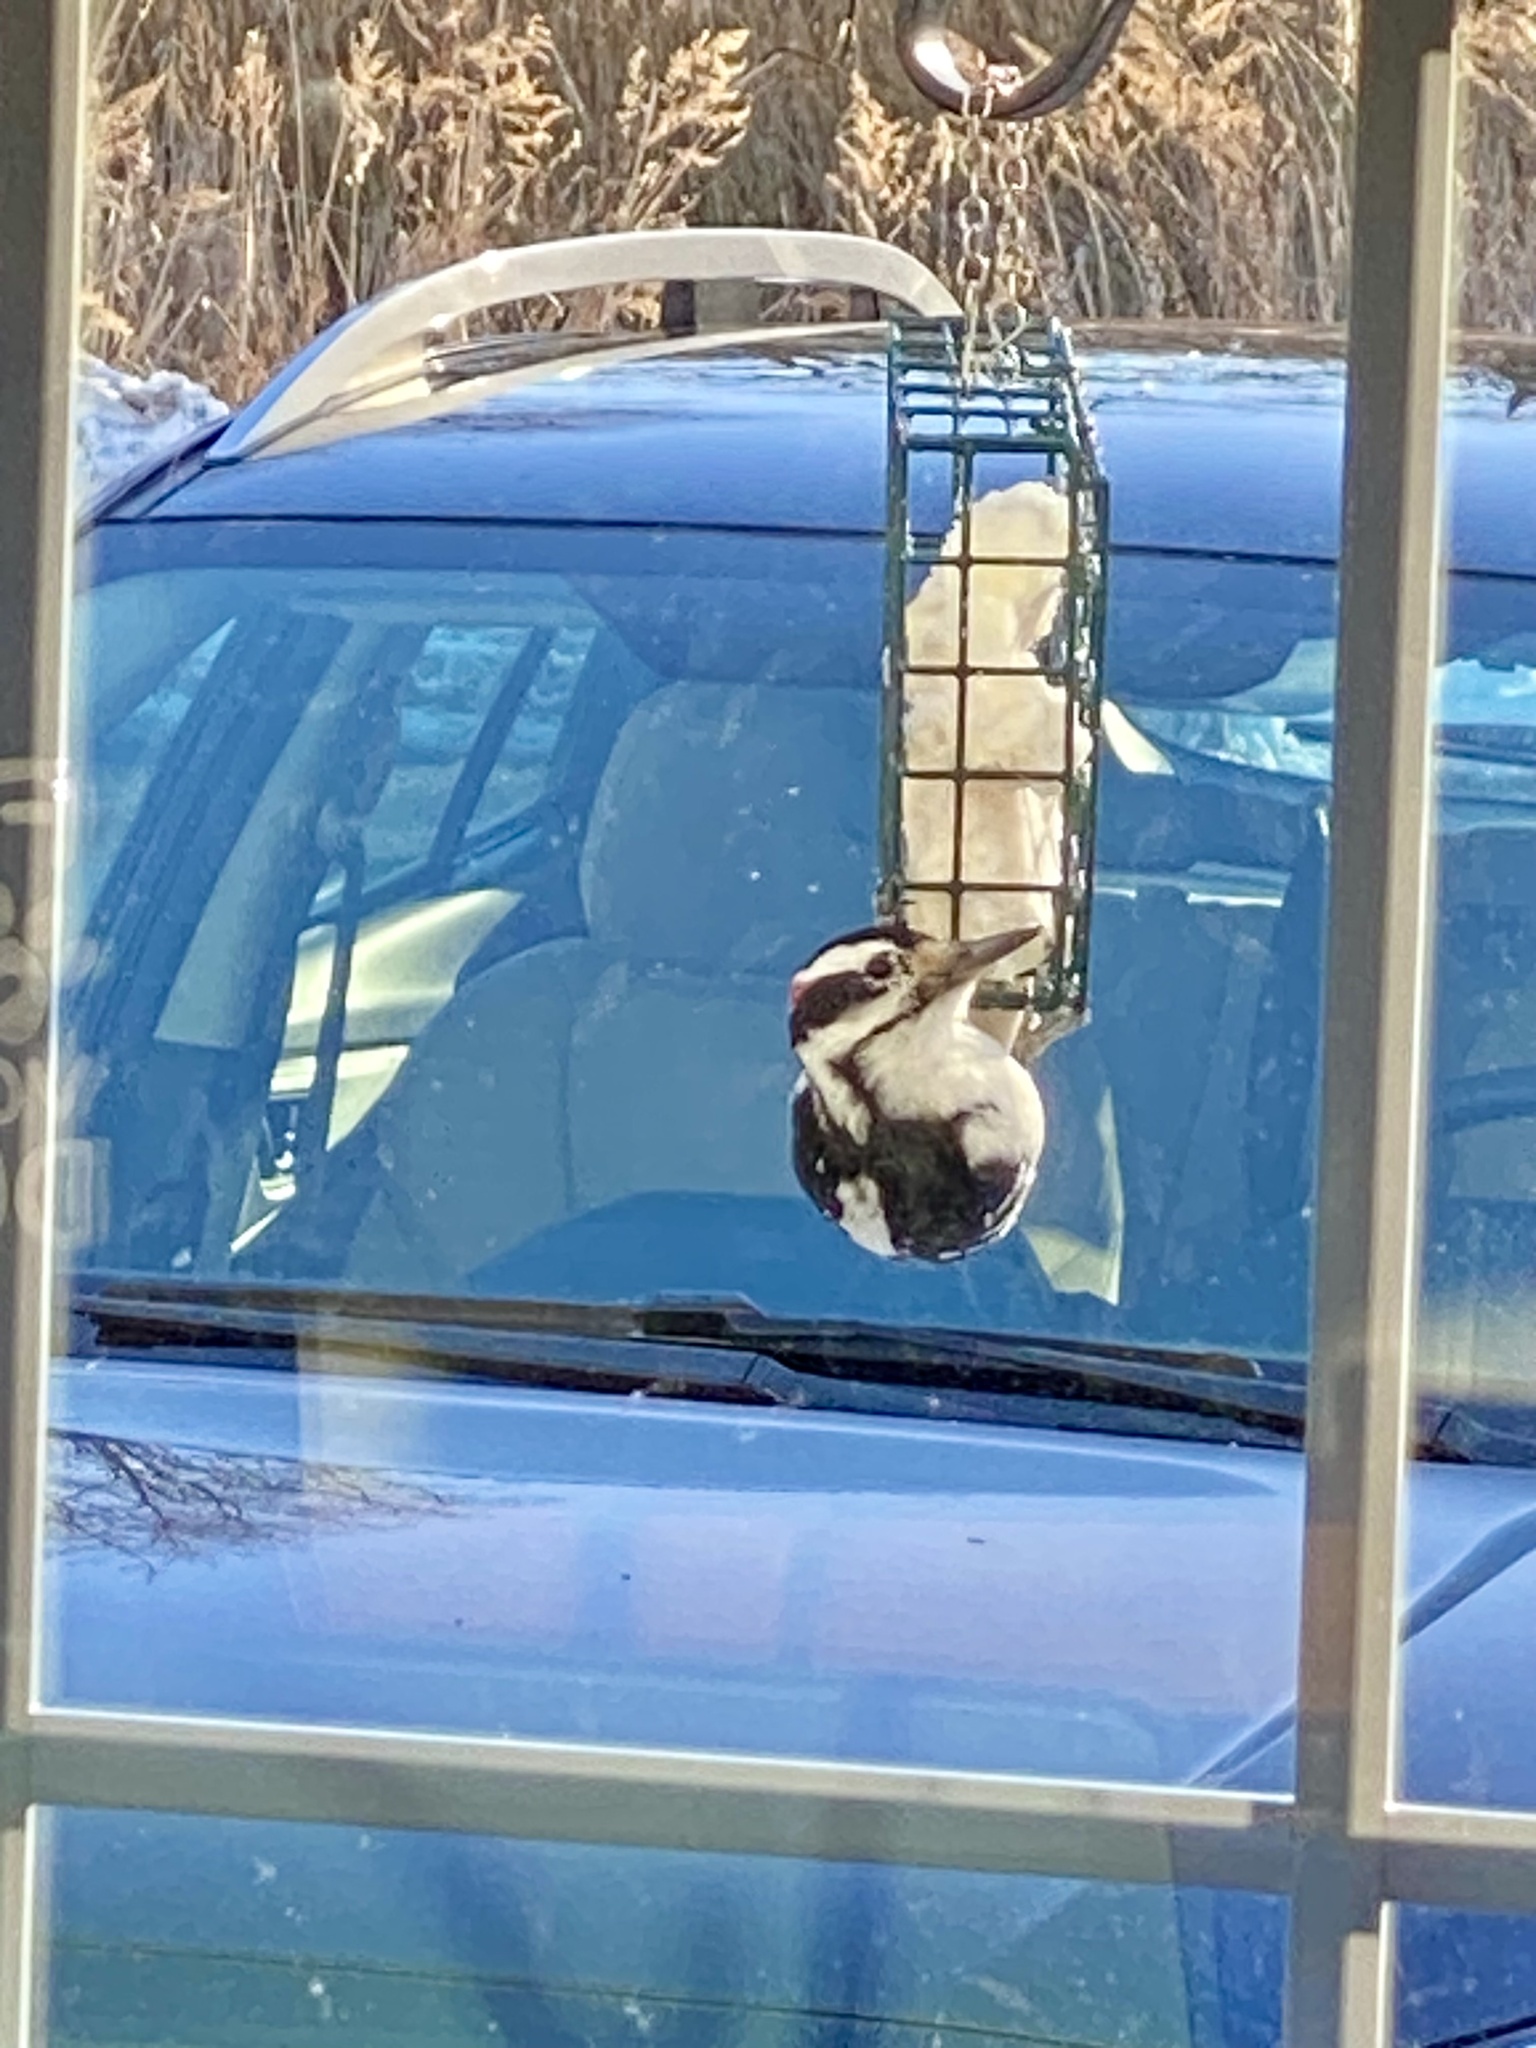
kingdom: Animalia
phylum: Chordata
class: Aves
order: Piciformes
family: Picidae
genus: Leuconotopicus
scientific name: Leuconotopicus villosus
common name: Hairy woodpecker
